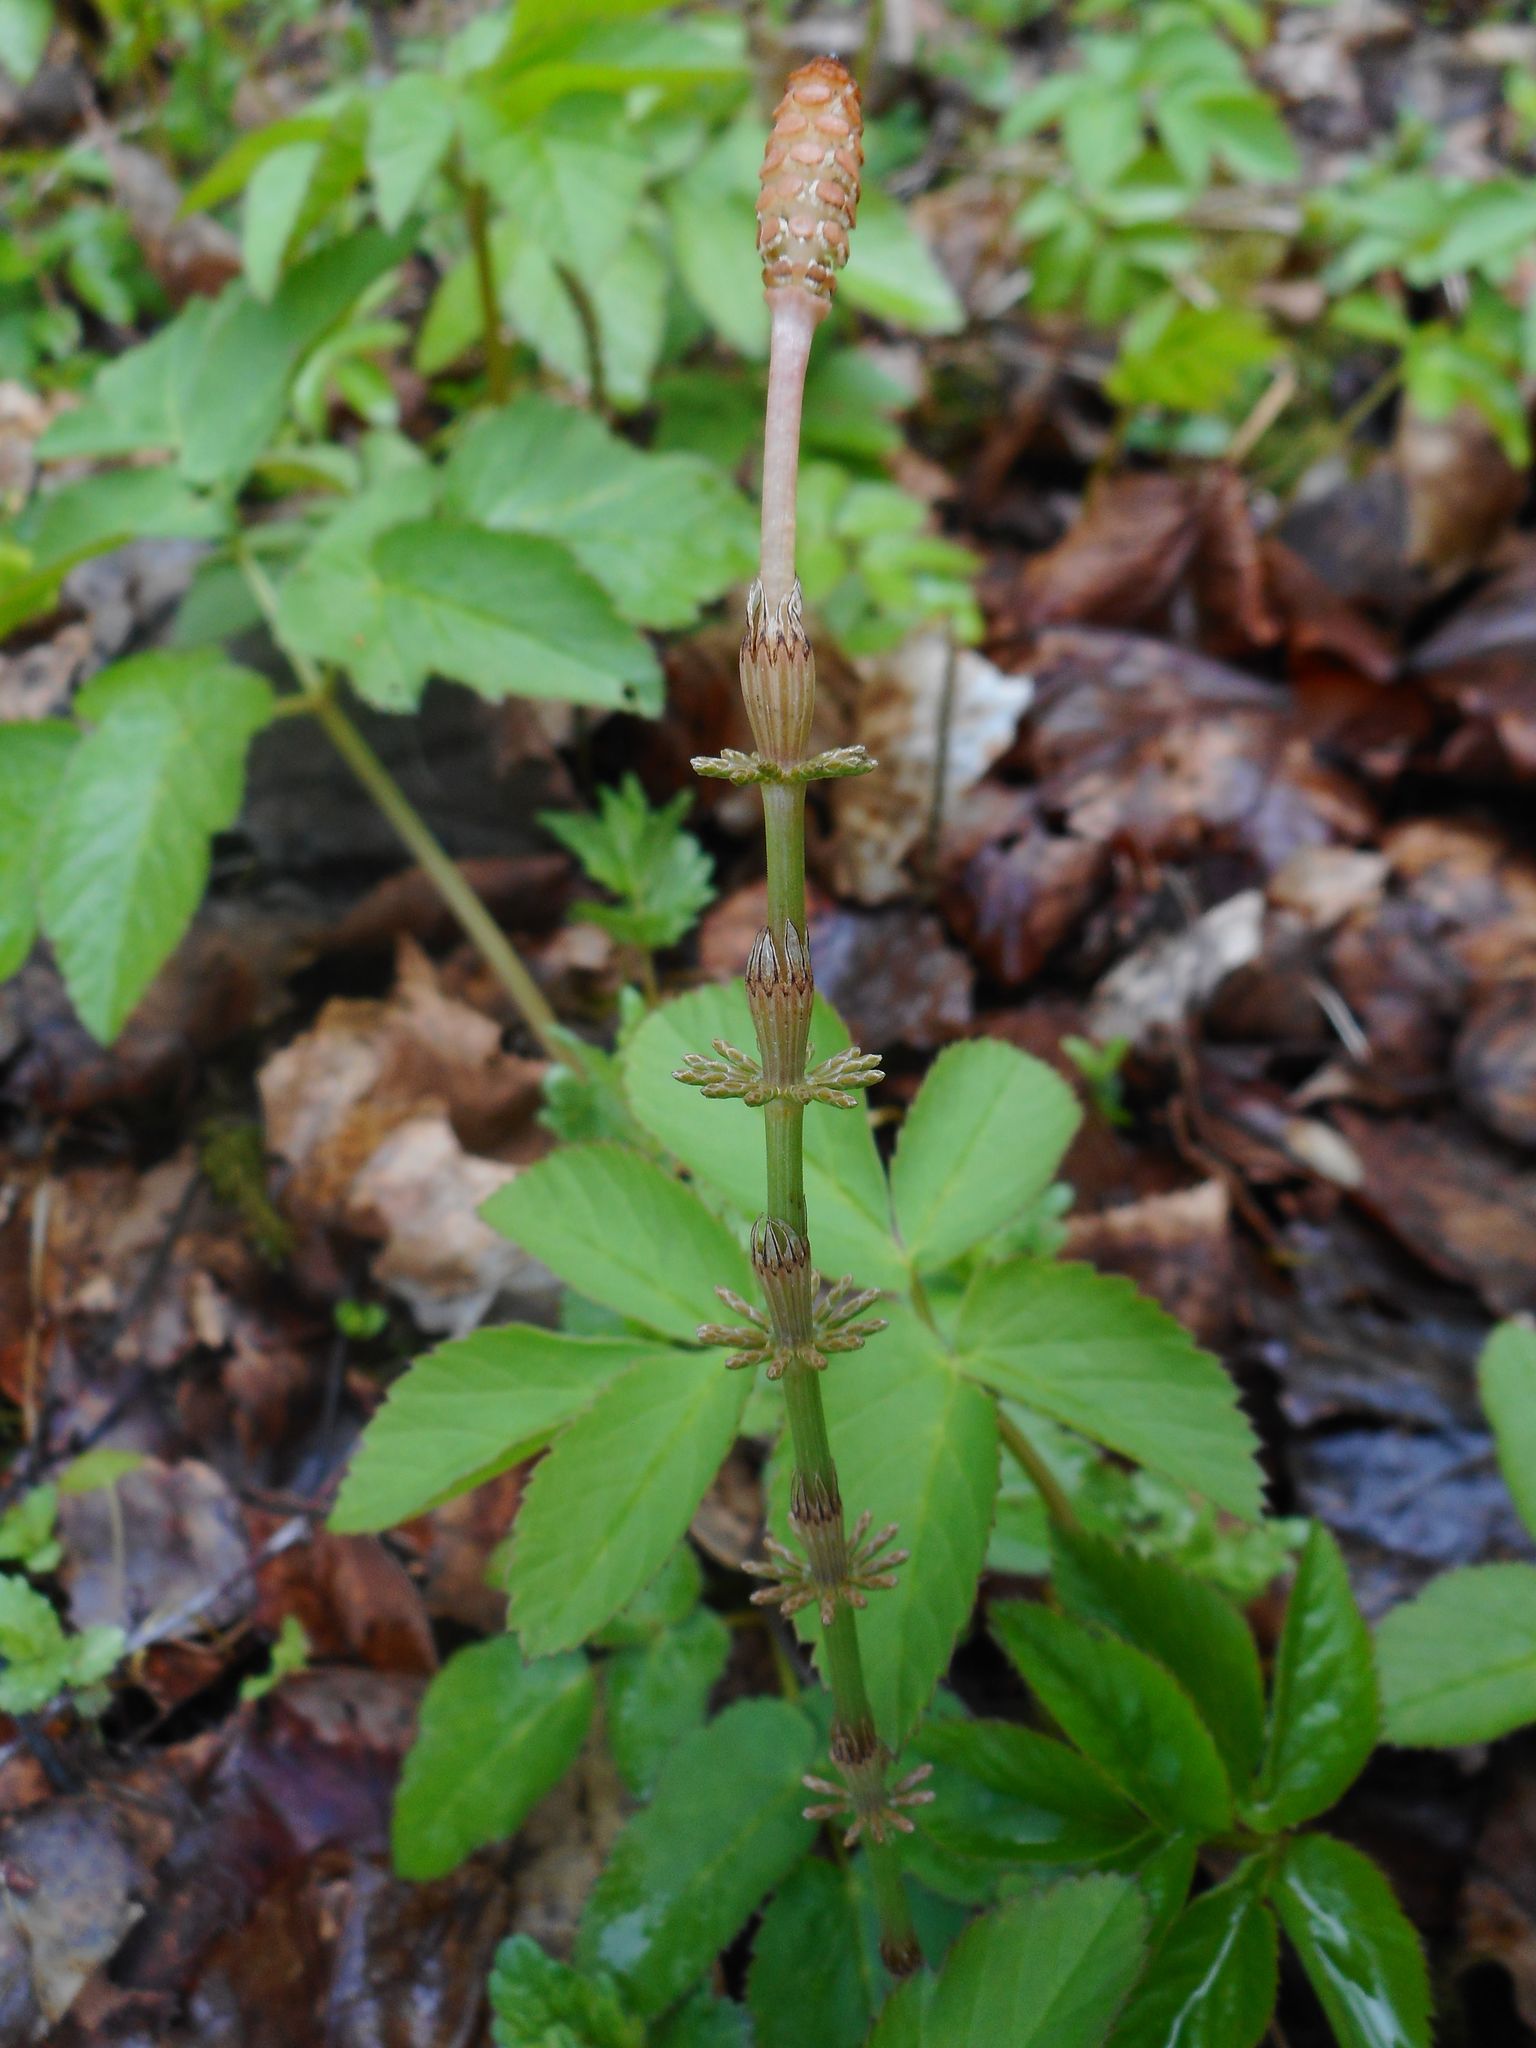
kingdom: Plantae
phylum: Tracheophyta
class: Polypodiopsida
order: Equisetales
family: Equisetaceae
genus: Equisetum
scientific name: Equisetum pratense
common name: Meadow horsetail
